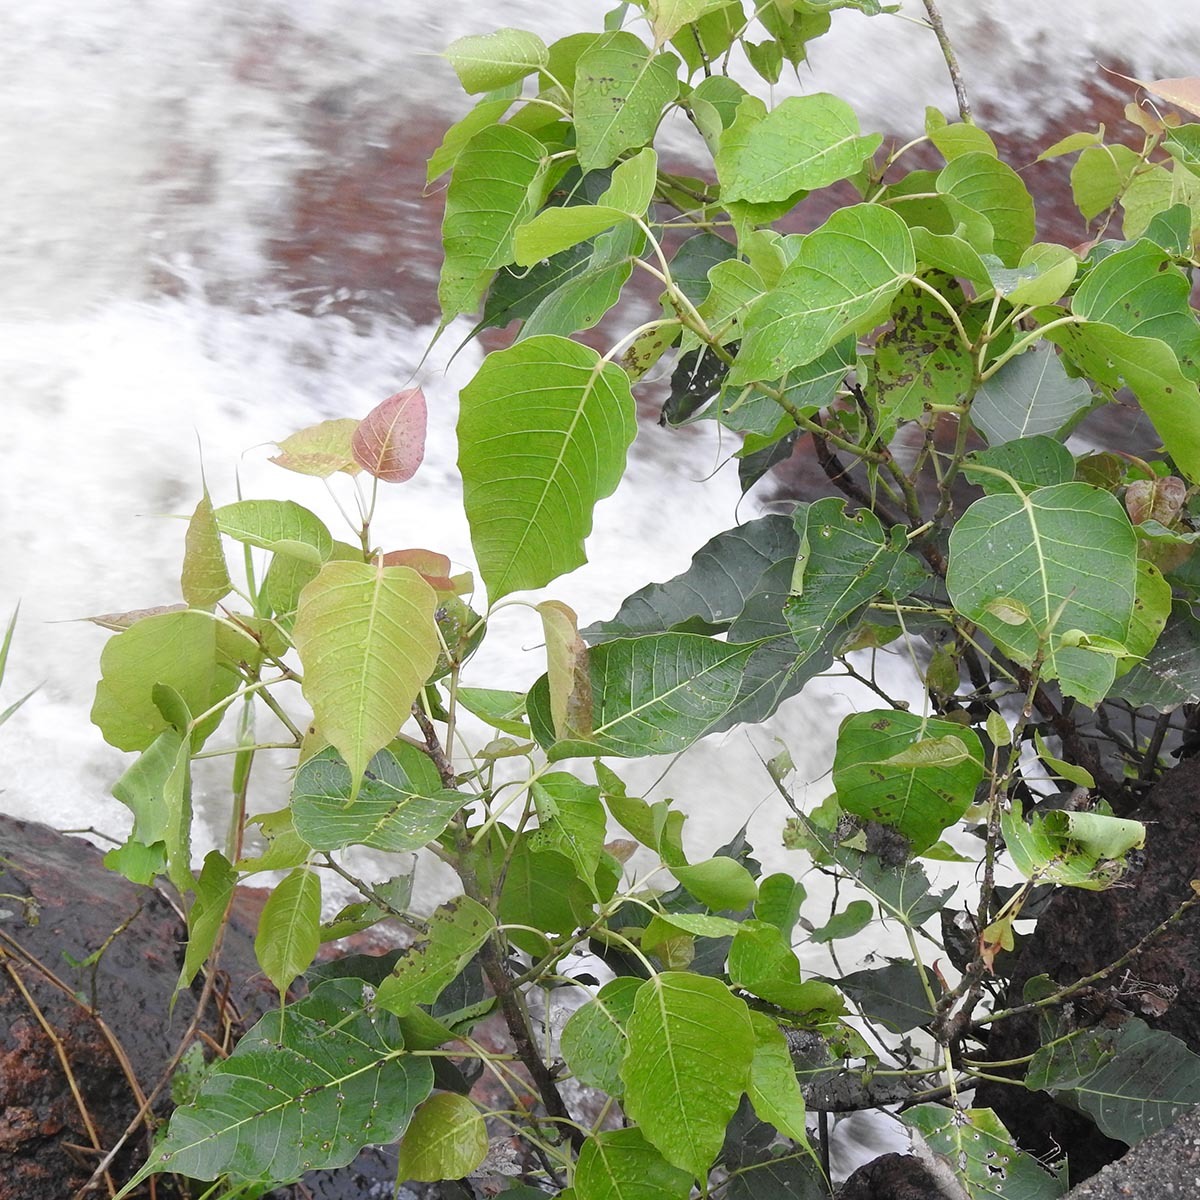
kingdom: Plantae
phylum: Tracheophyta
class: Magnoliopsida
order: Rosales
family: Moraceae
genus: Ficus
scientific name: Ficus religiosa
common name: Bodhi tree
